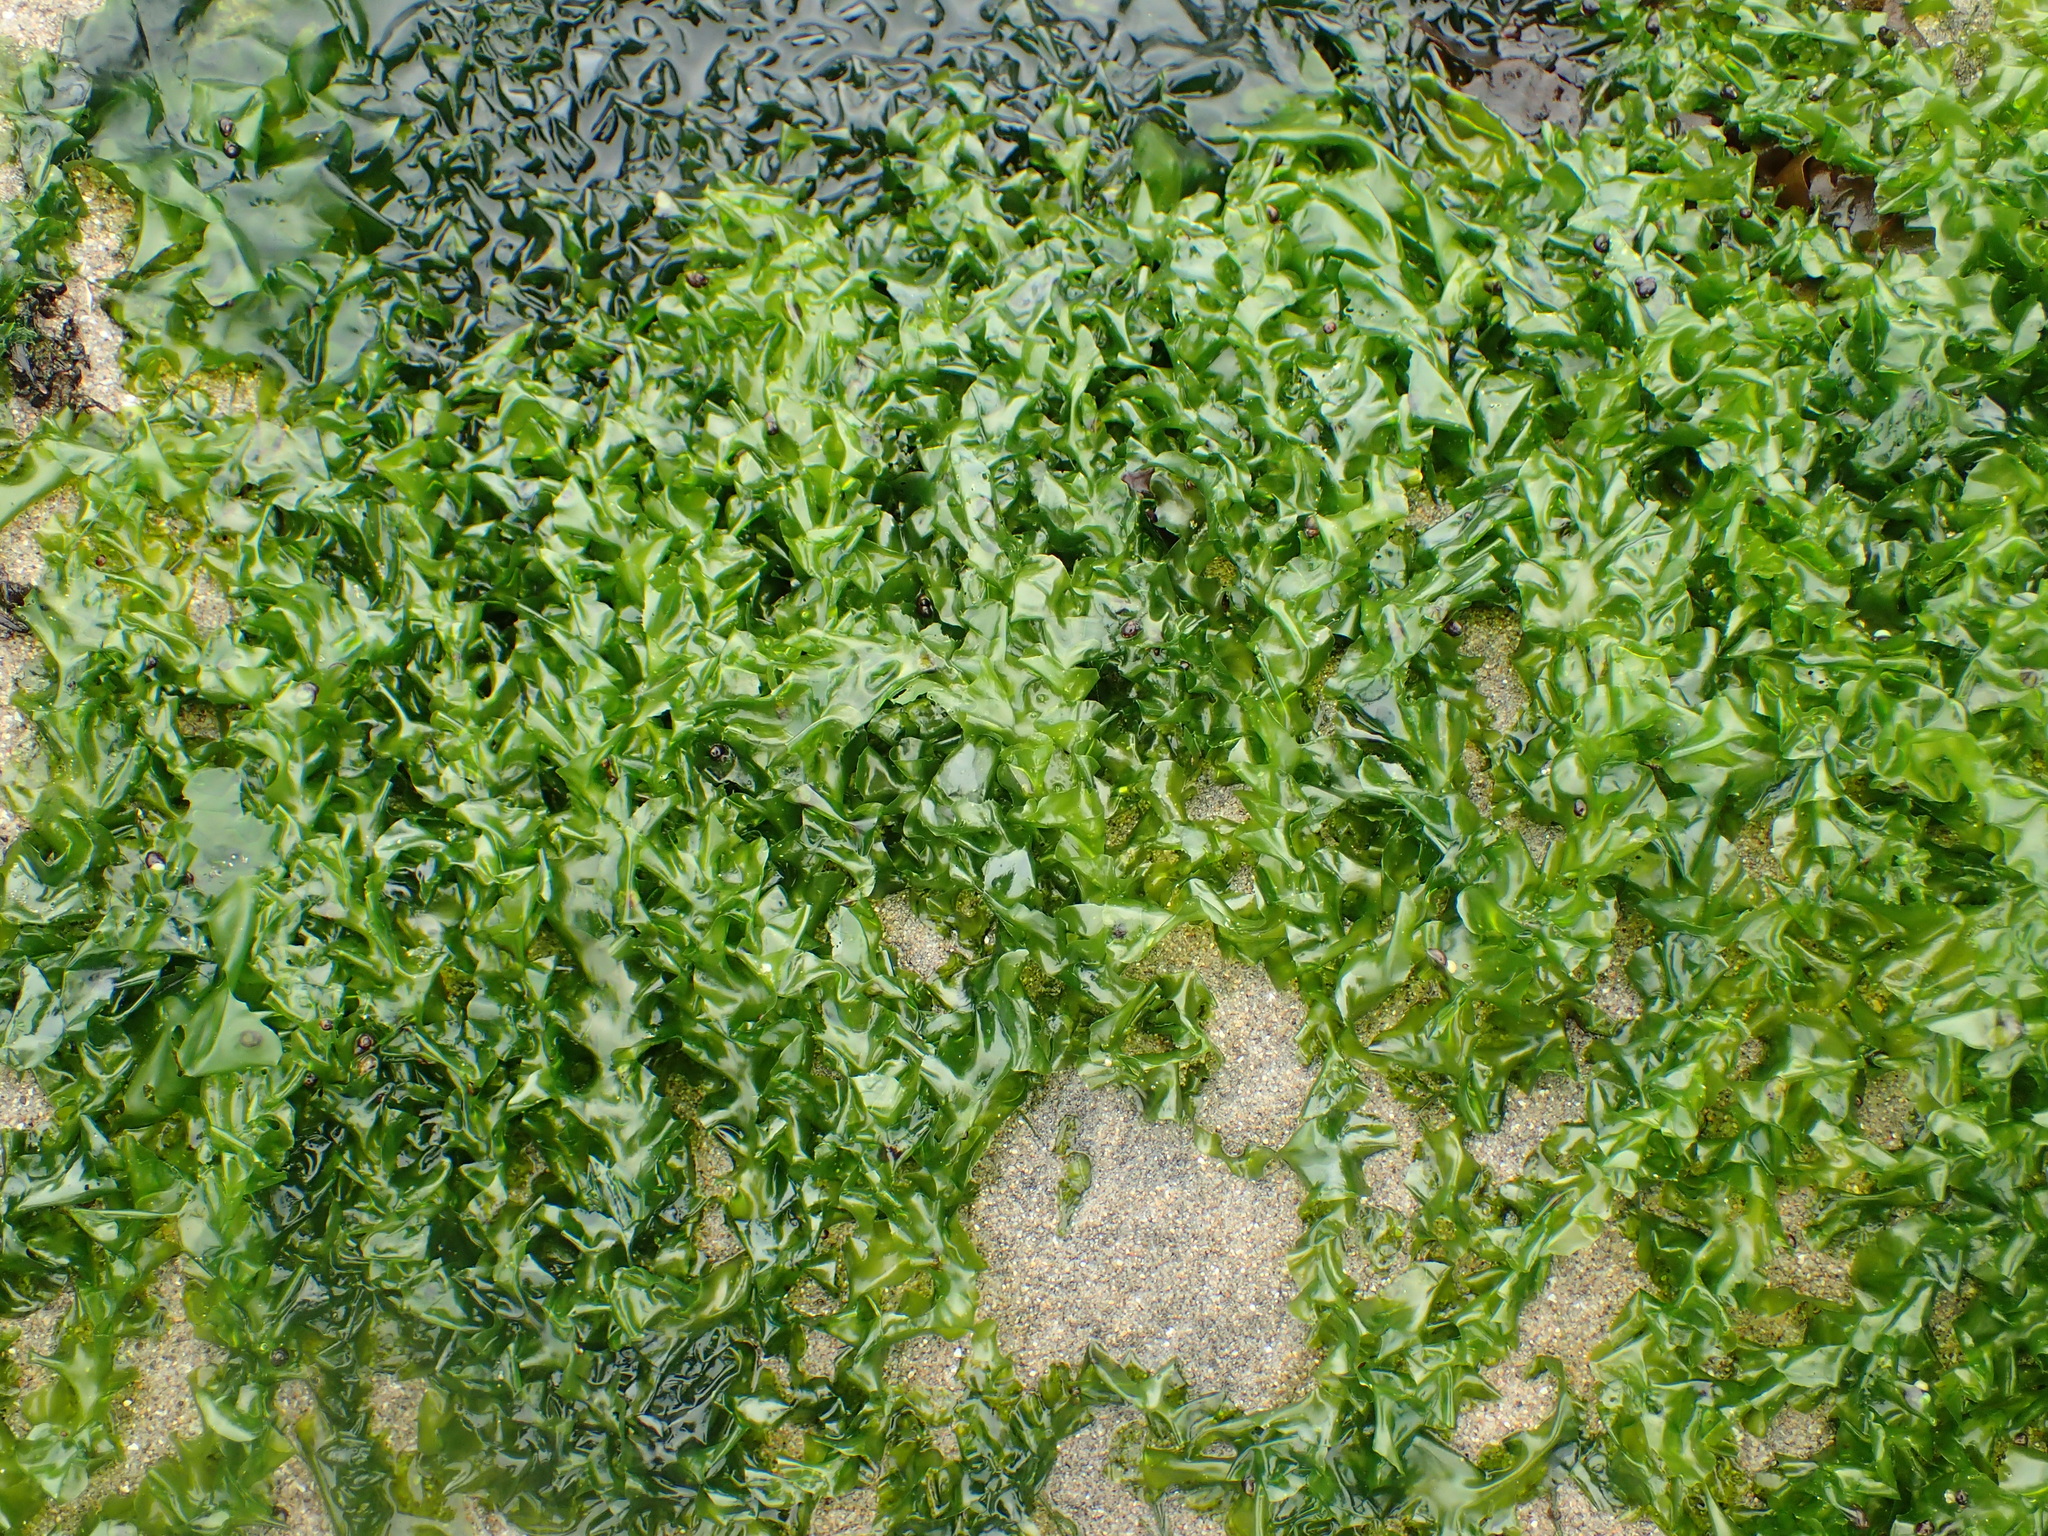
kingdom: Plantae
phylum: Chlorophyta
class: Ulvophyceae
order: Ulvales
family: Ulvaceae
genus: Ulva
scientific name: Ulva taeniata
